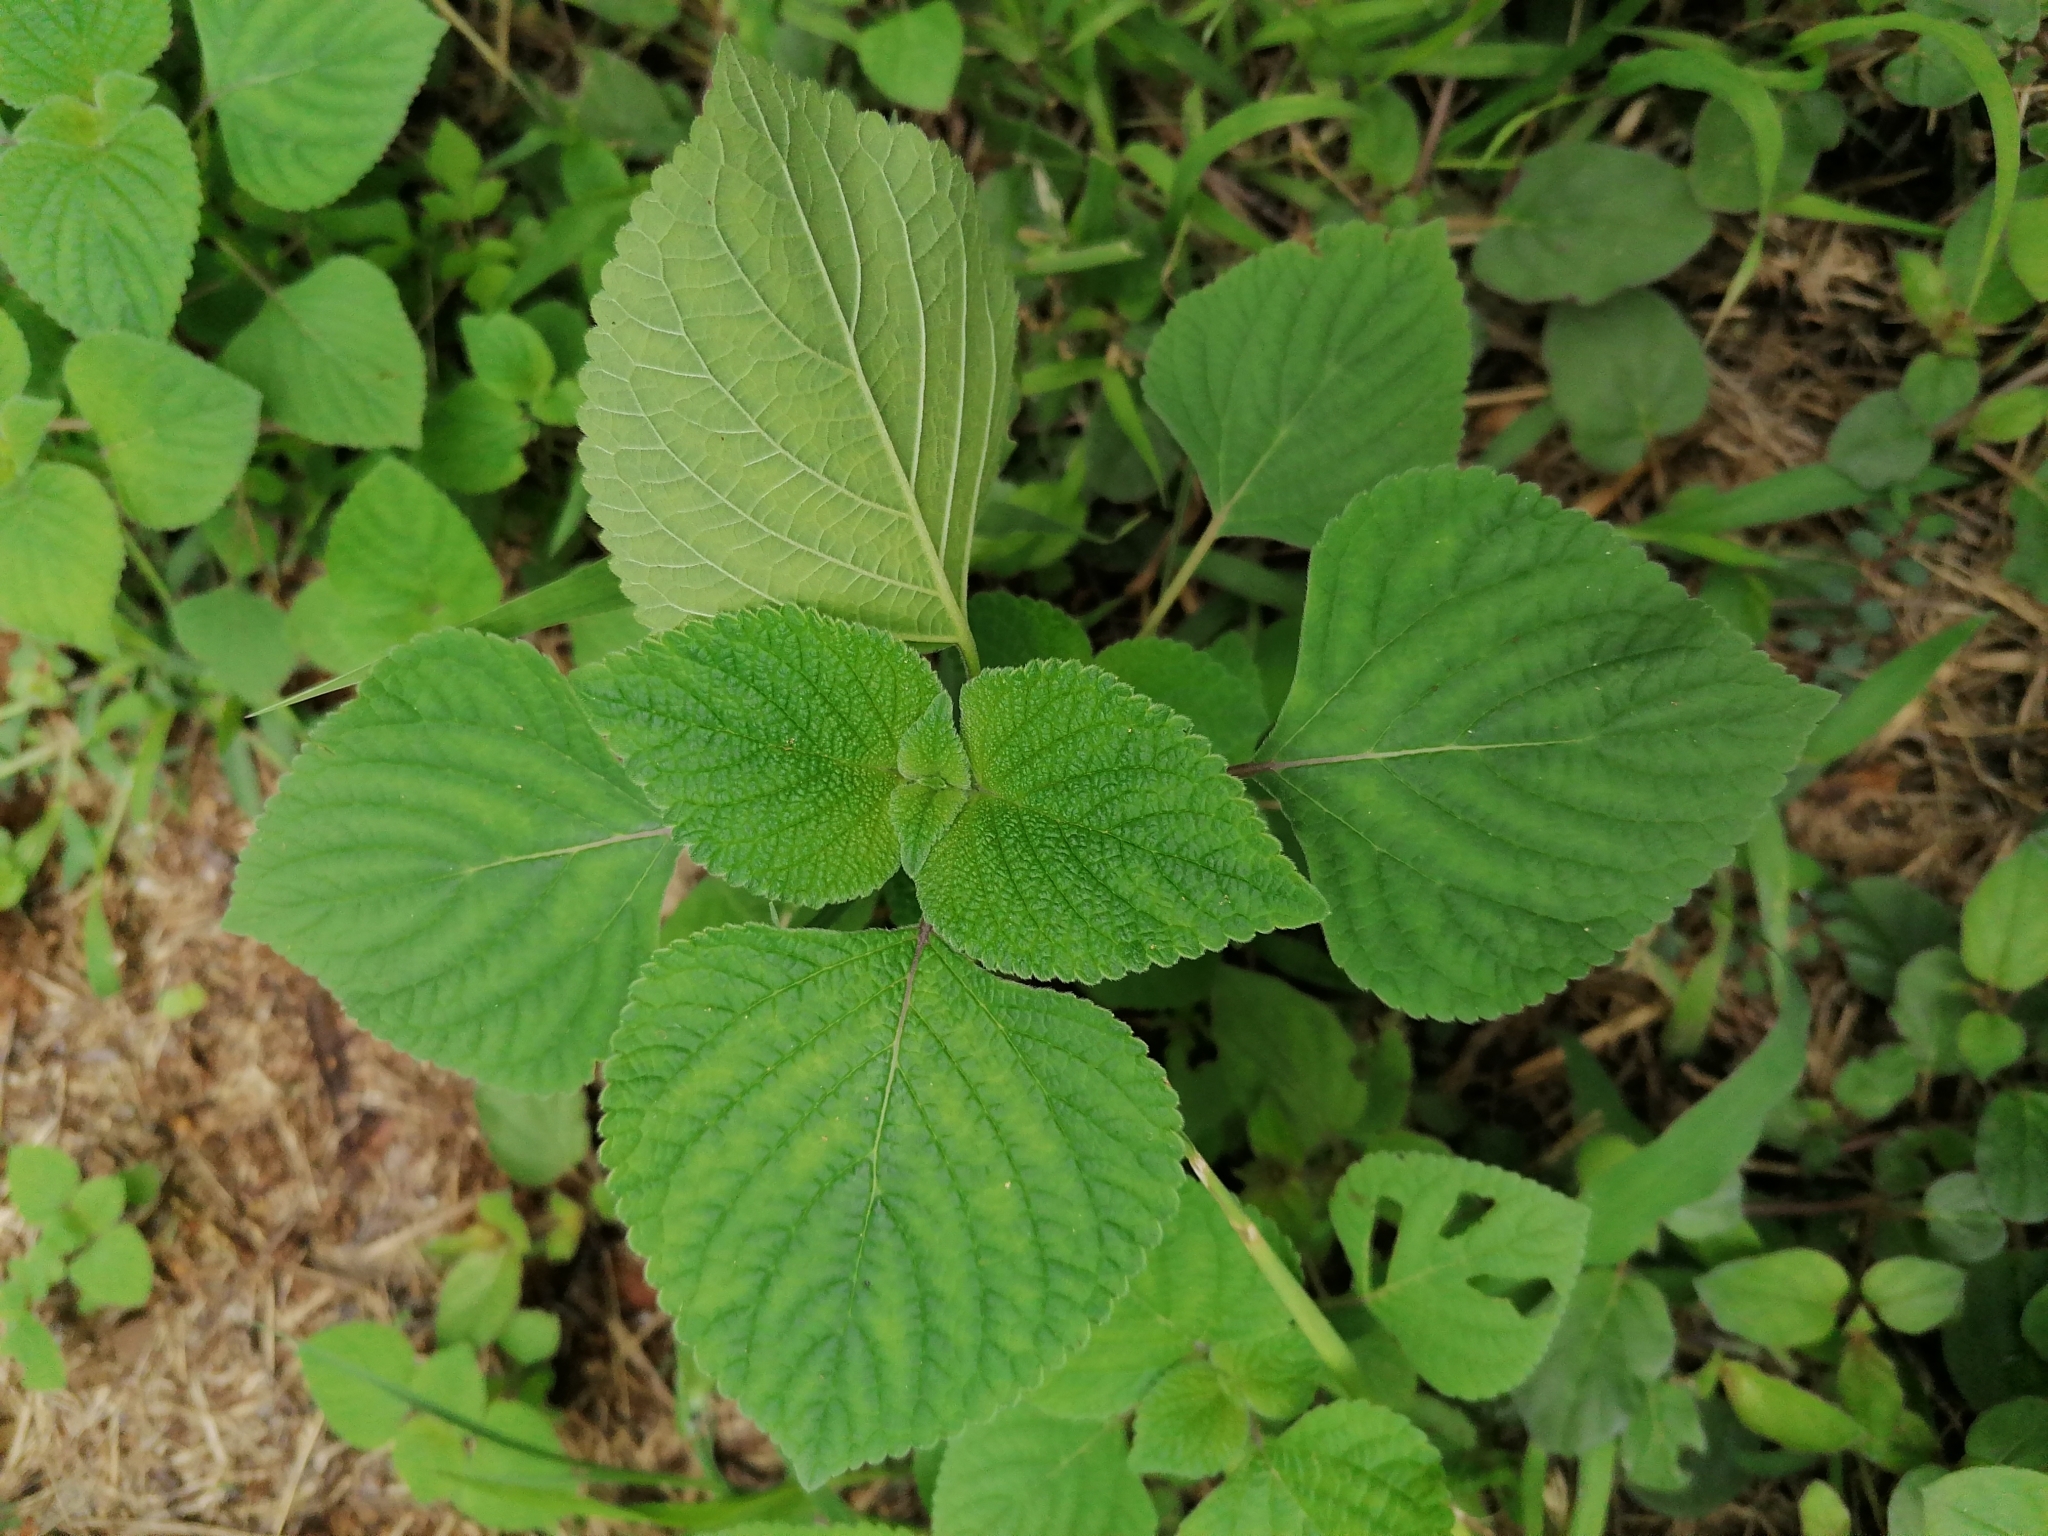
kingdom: Plantae
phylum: Tracheophyta
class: Magnoliopsida
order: Lamiales
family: Lamiaceae
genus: Salvia
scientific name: Salvia tiliifolia
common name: Lindenleaf sage
